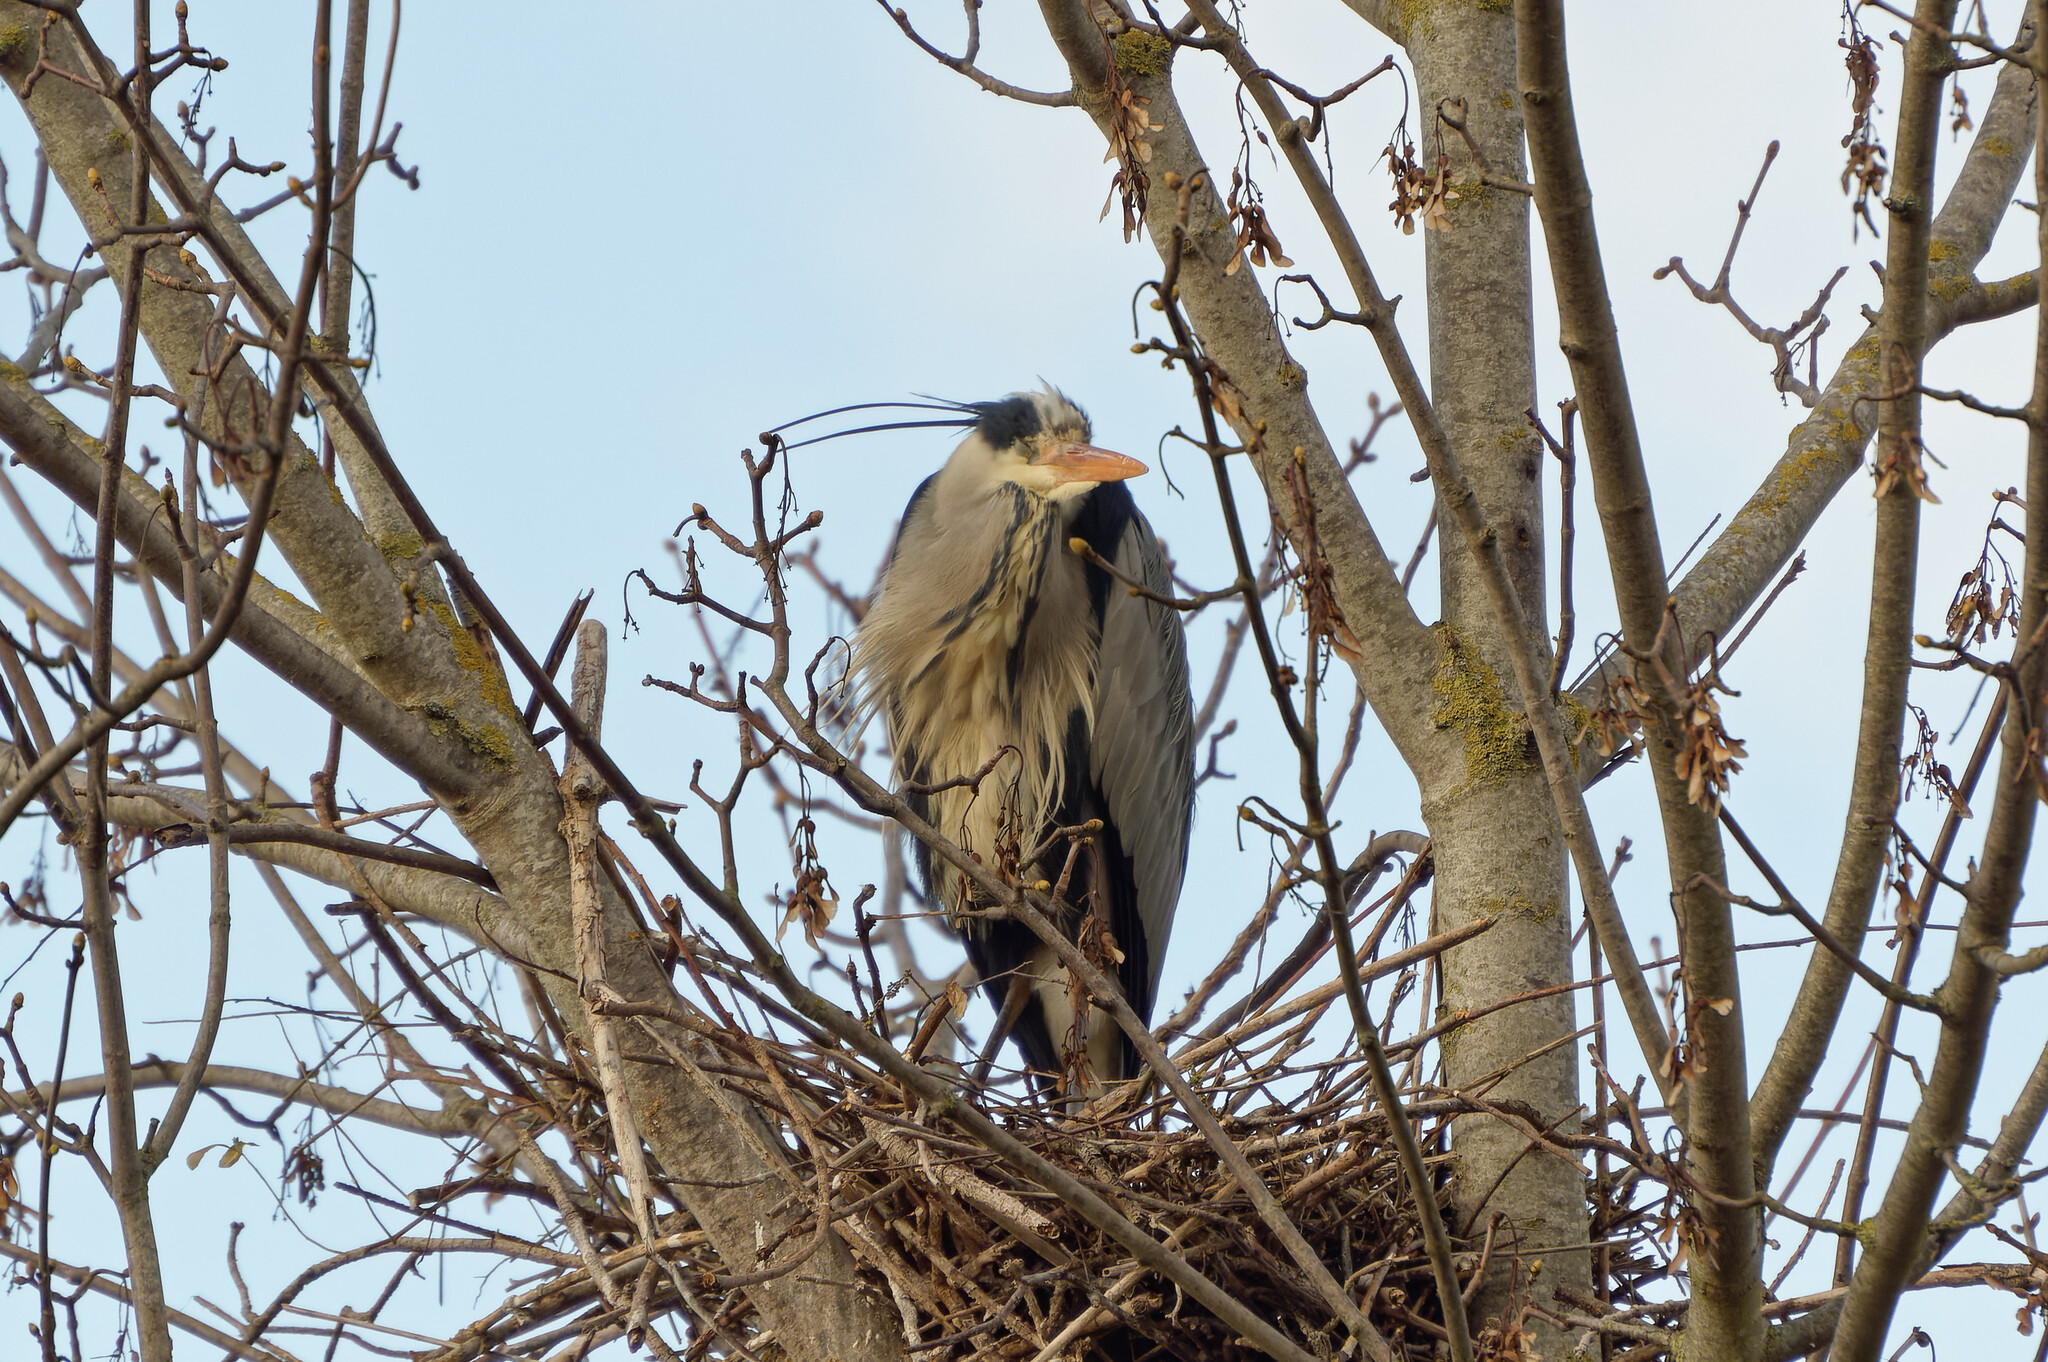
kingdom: Animalia
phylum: Chordata
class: Aves
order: Pelecaniformes
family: Ardeidae
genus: Ardea
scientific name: Ardea cinerea
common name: Grey heron
